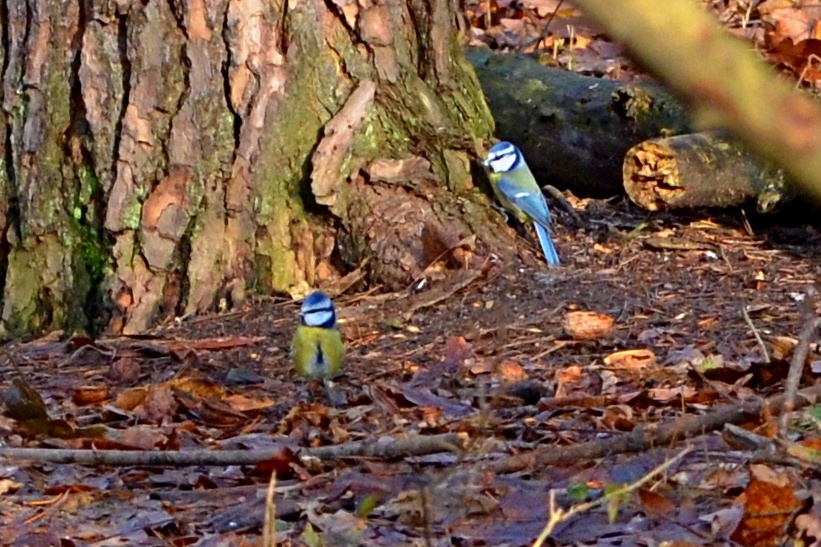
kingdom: Animalia
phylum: Chordata
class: Aves
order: Passeriformes
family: Paridae
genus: Cyanistes
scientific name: Cyanistes caeruleus
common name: Eurasian blue tit
